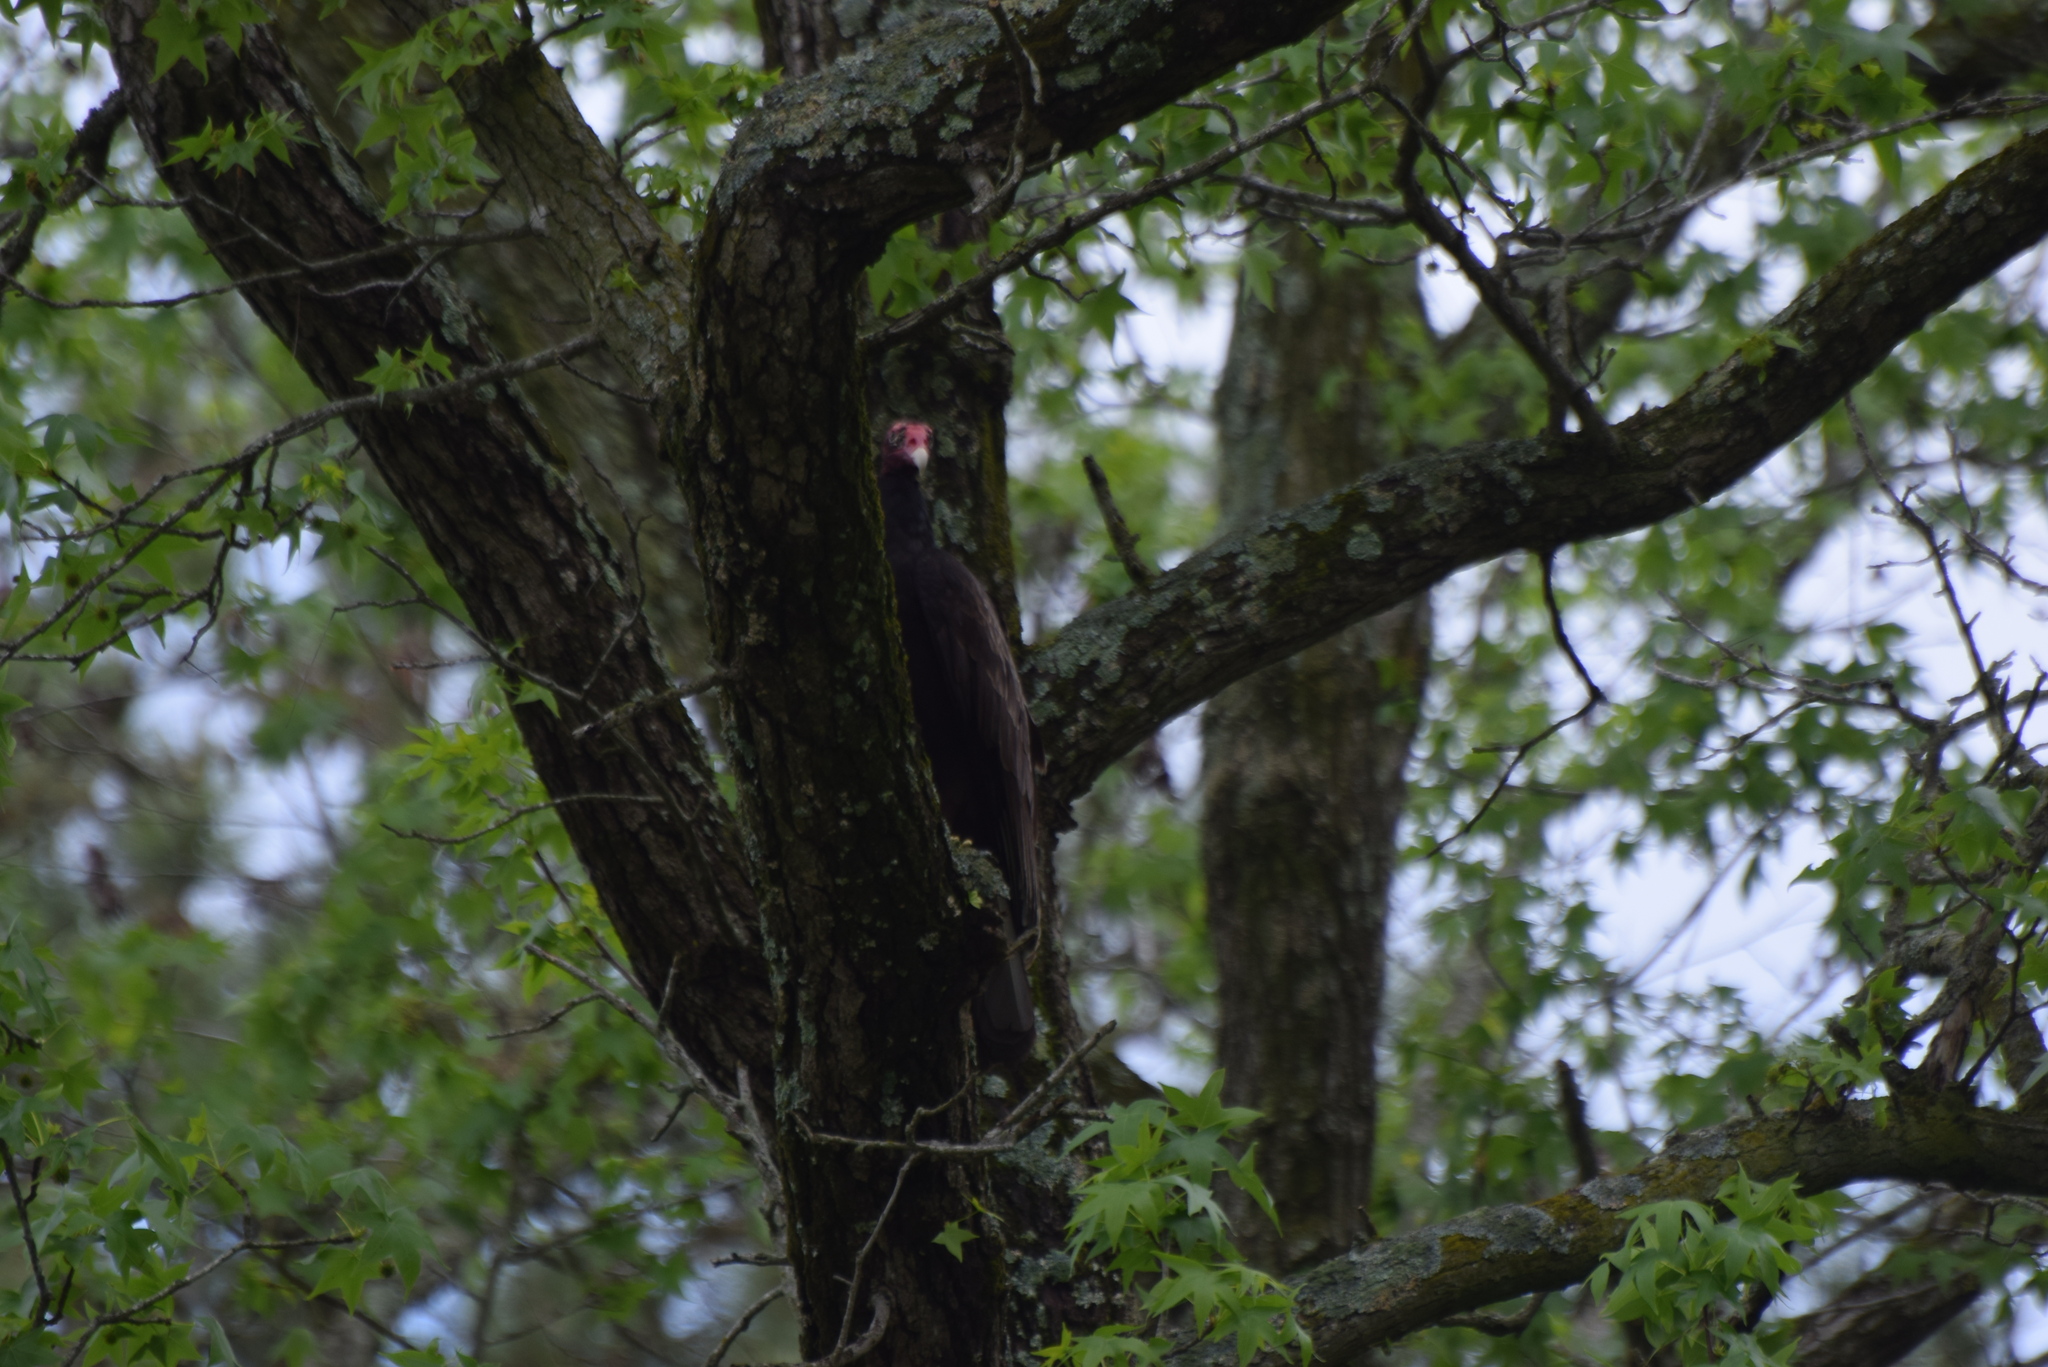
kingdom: Animalia
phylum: Chordata
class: Aves
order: Accipitriformes
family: Cathartidae
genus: Cathartes
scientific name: Cathartes aura
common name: Turkey vulture
